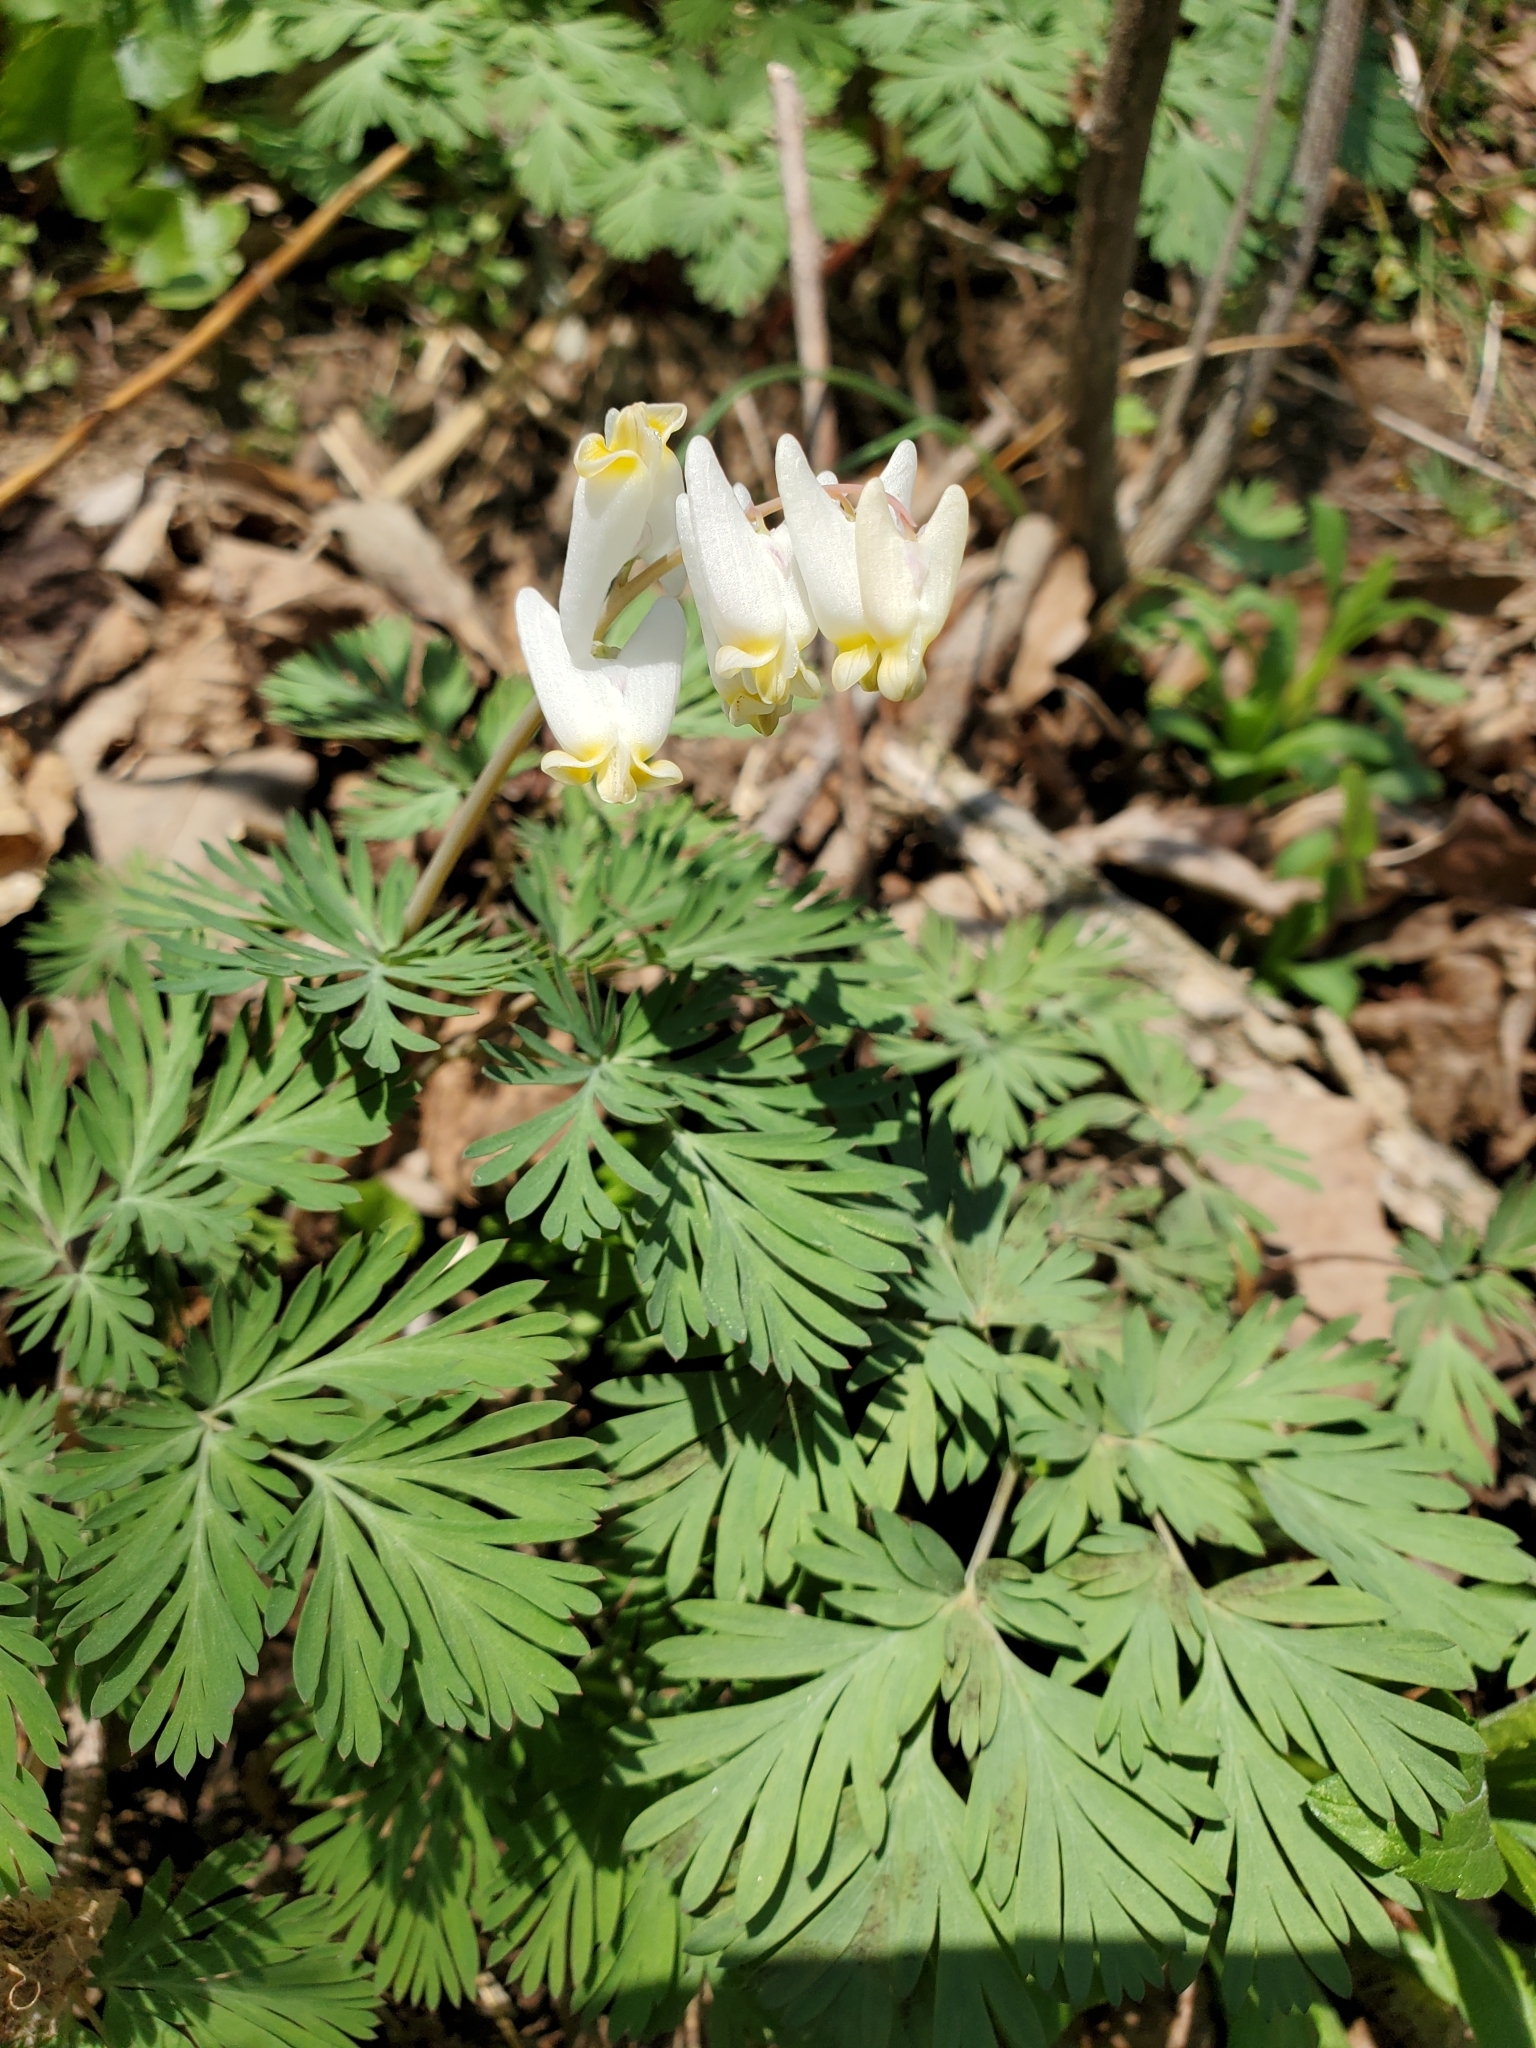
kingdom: Plantae
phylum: Tracheophyta
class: Magnoliopsida
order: Ranunculales
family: Papaveraceae
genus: Dicentra
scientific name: Dicentra cucullaria
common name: Dutchman's breeches
